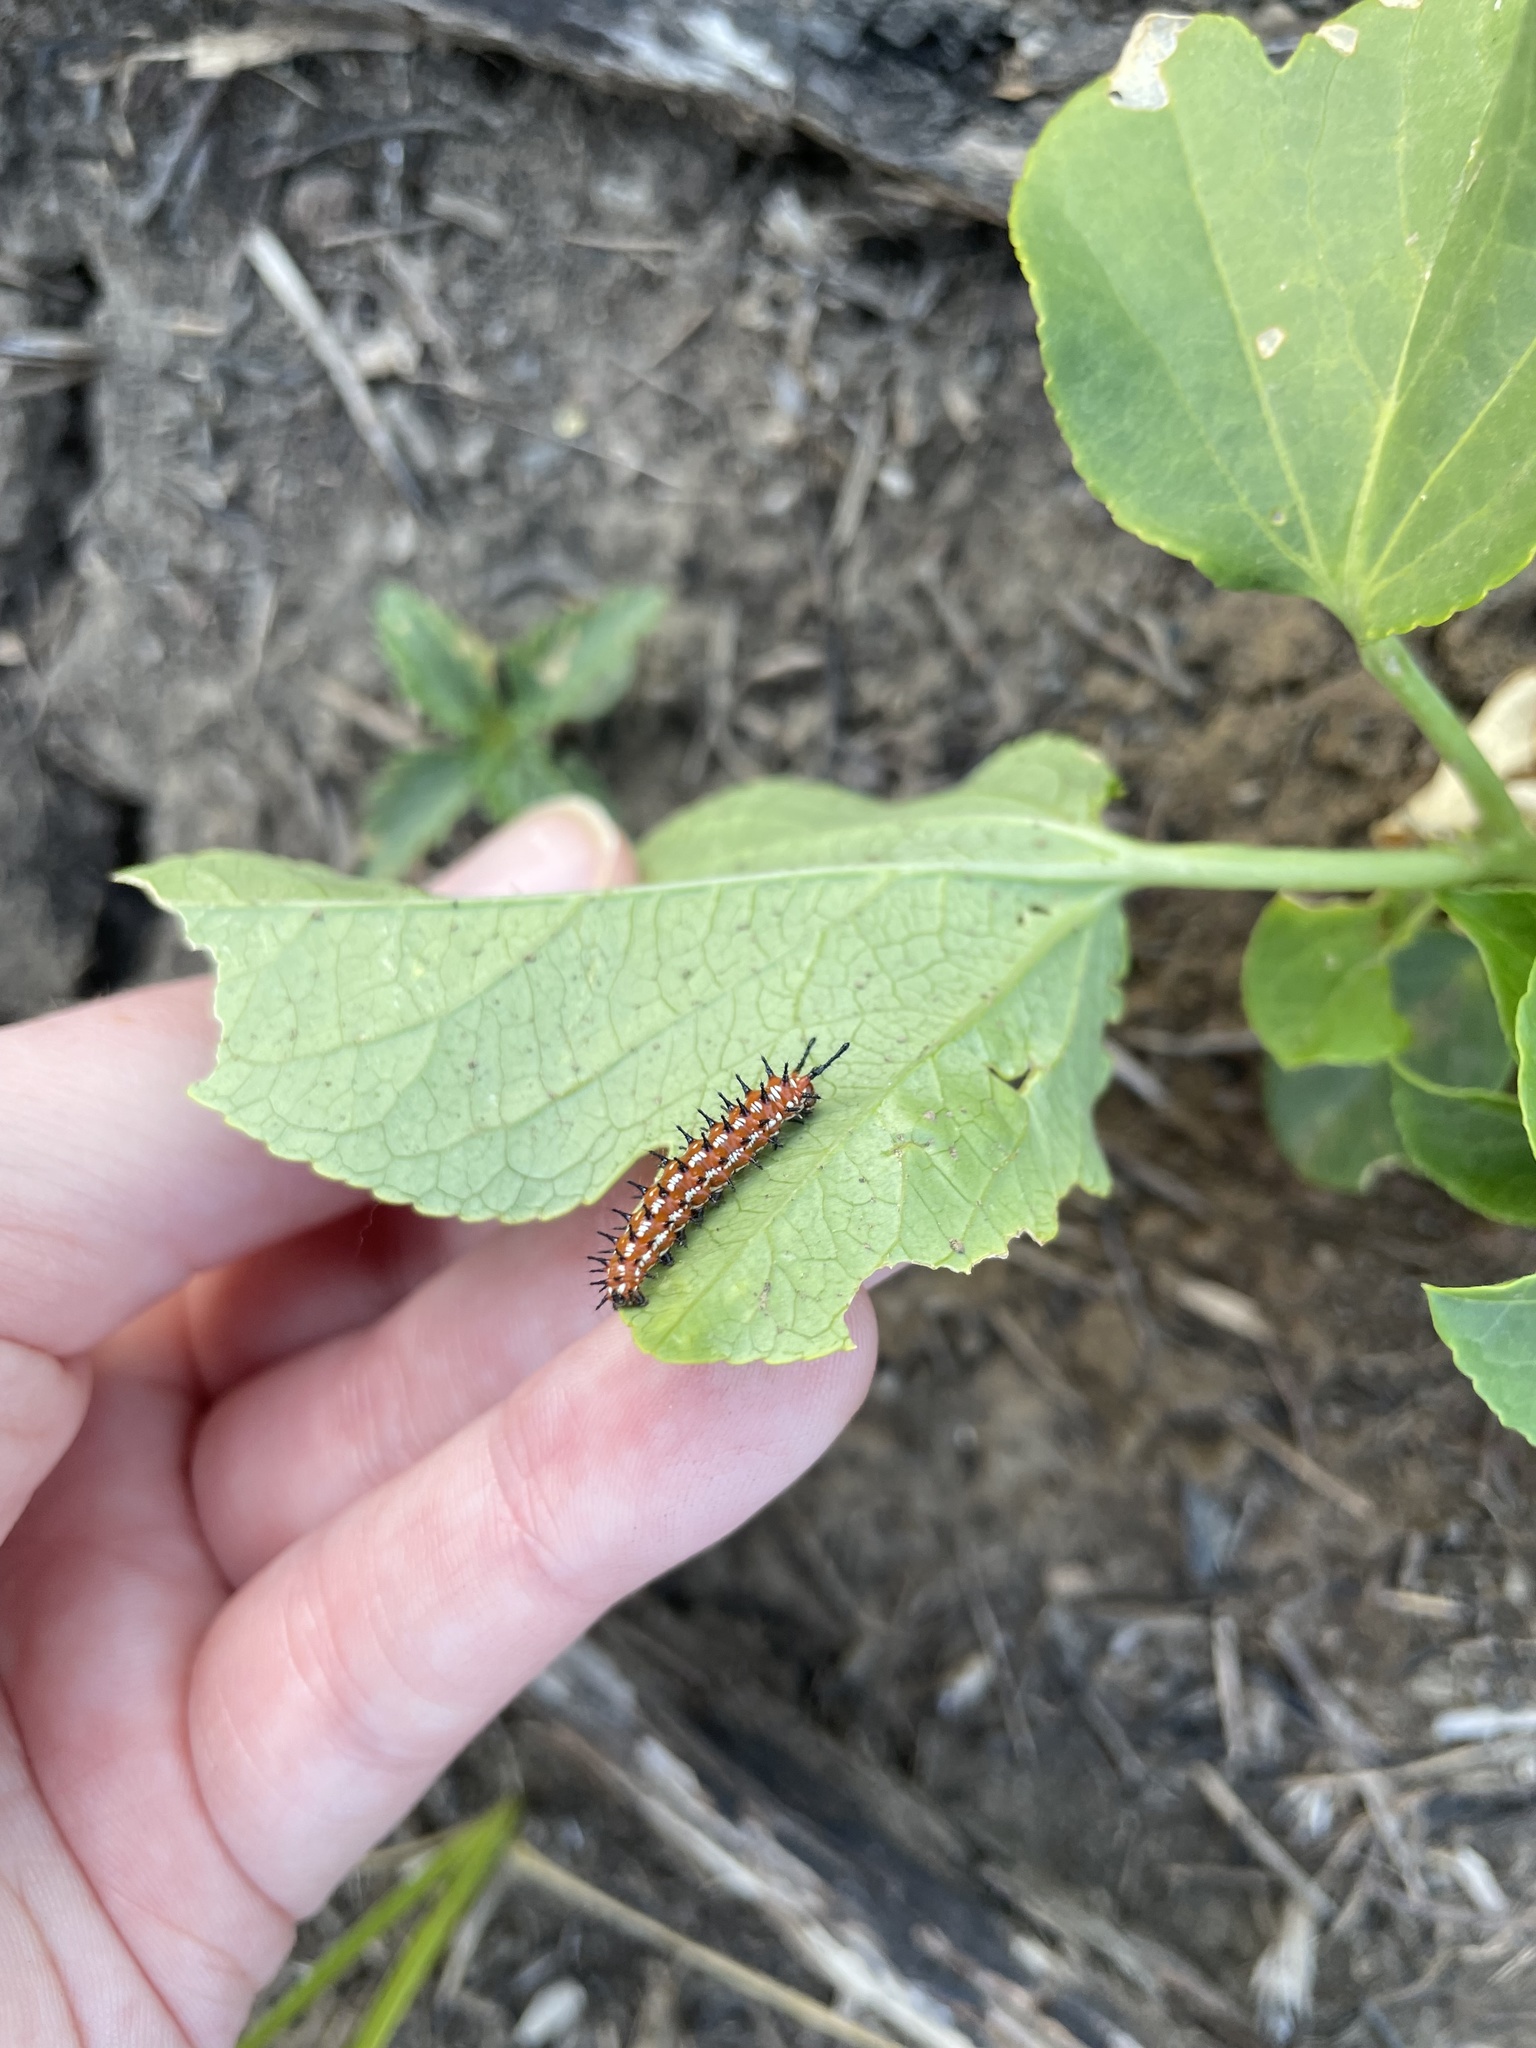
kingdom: Animalia
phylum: Arthropoda
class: Insecta
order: Lepidoptera
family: Nymphalidae
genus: Euptoieta
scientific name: Euptoieta claudia
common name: Variegated fritillary
